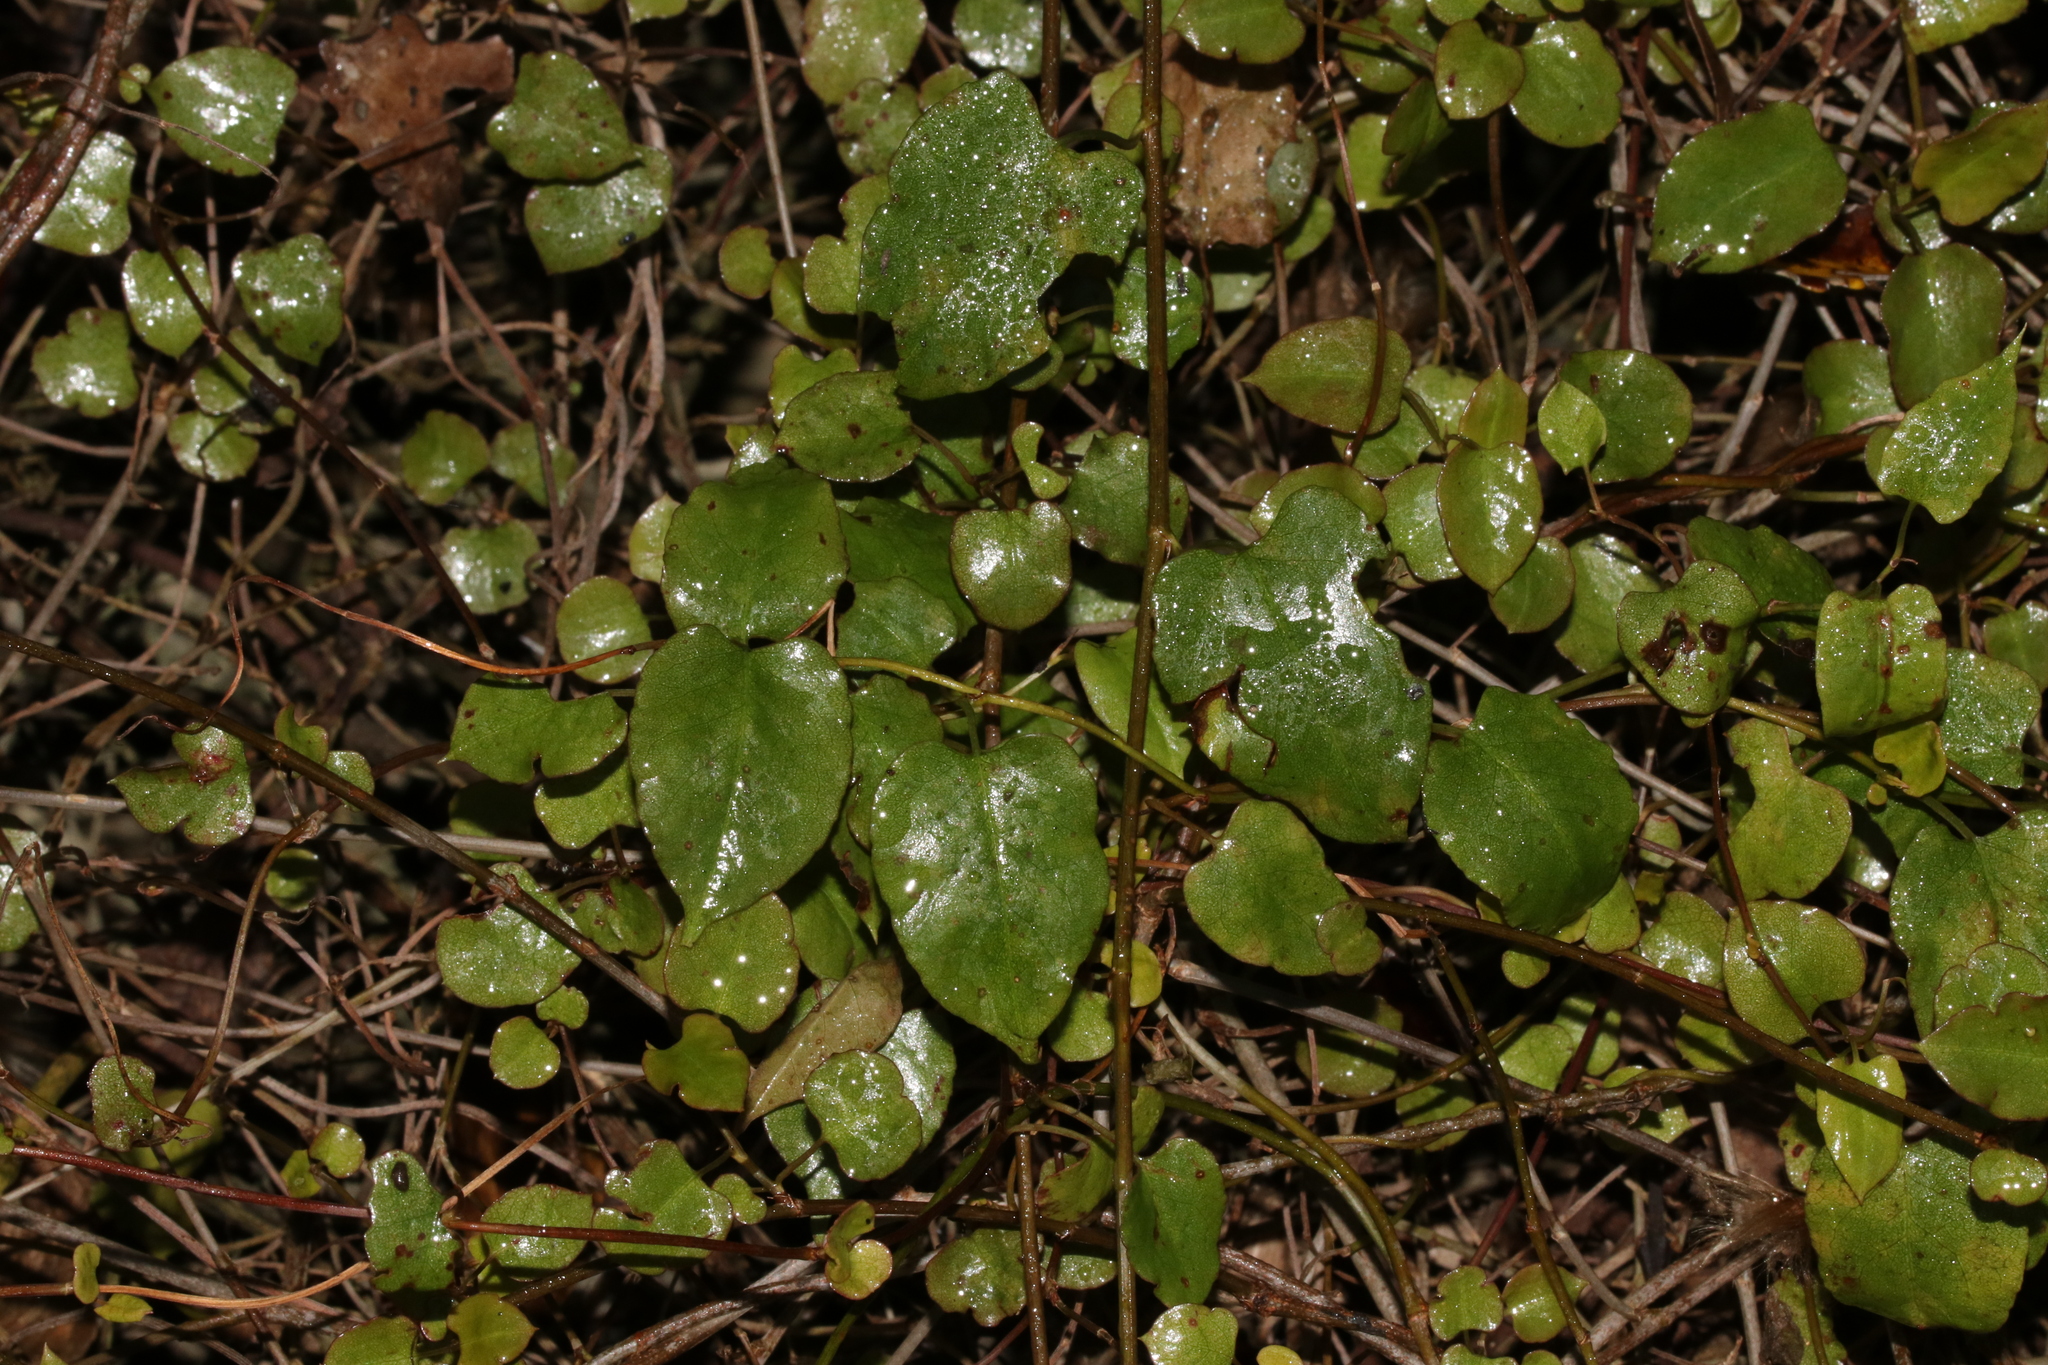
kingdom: Plantae
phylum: Tracheophyta
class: Magnoliopsida
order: Caryophyllales
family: Polygonaceae
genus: Muehlenbeckia
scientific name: Muehlenbeckia australis
